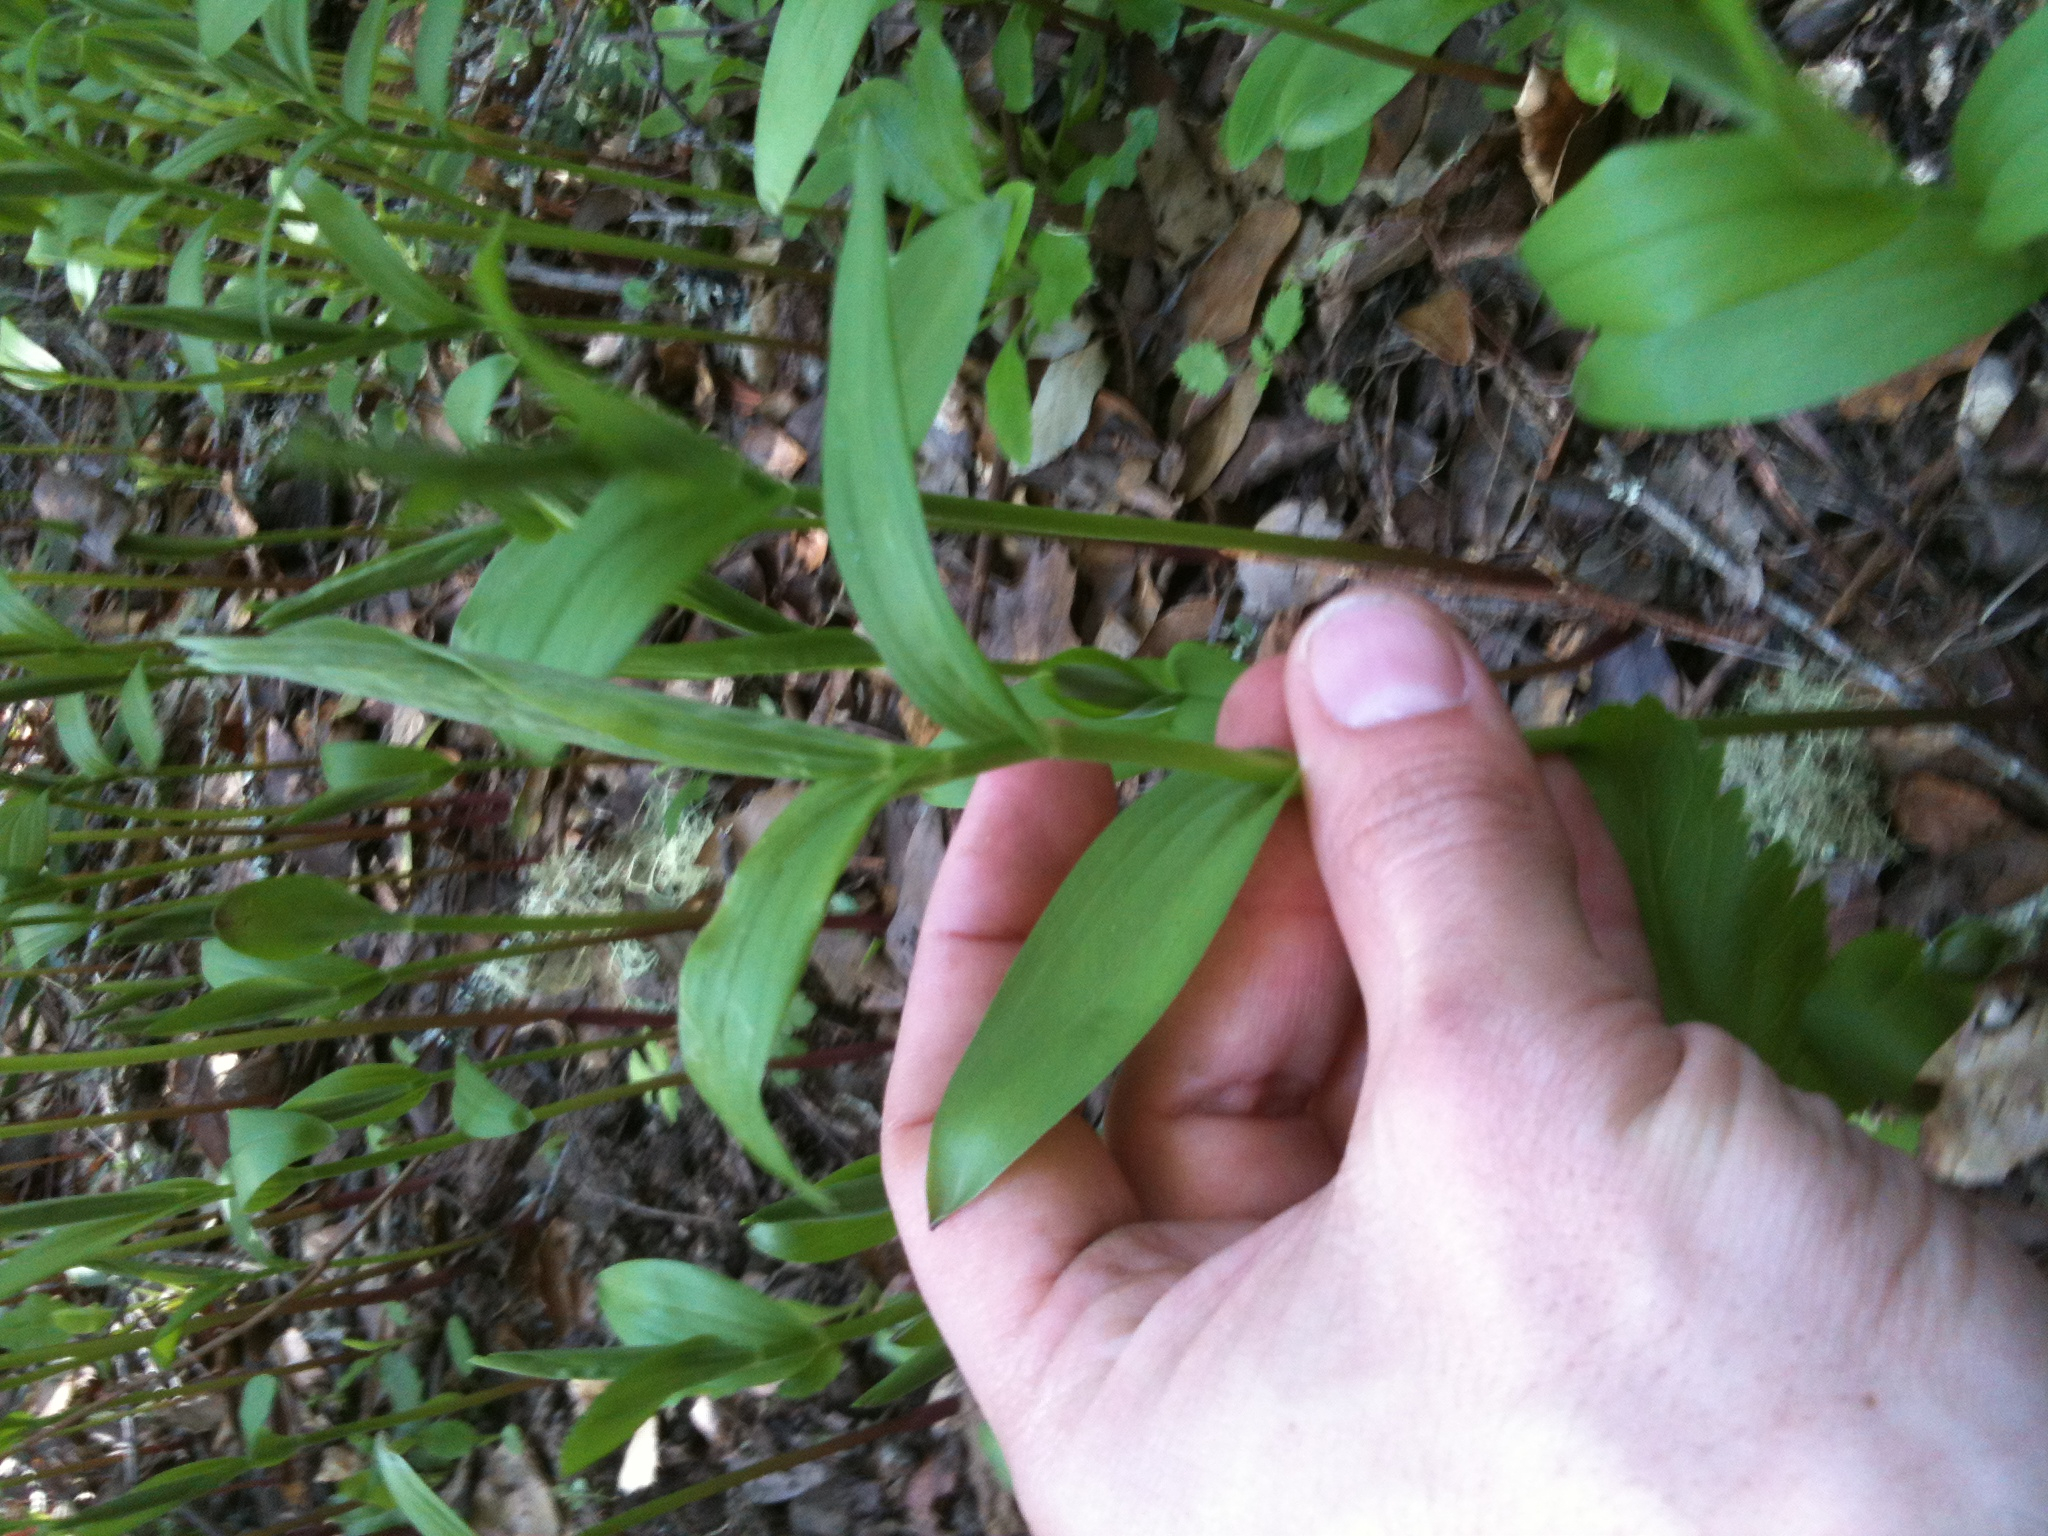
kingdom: Plantae
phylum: Tracheophyta
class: Liliopsida
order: Asparagales
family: Asparagaceae
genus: Maianthemum
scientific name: Maianthemum stellatum
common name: Little false solomon's seal
